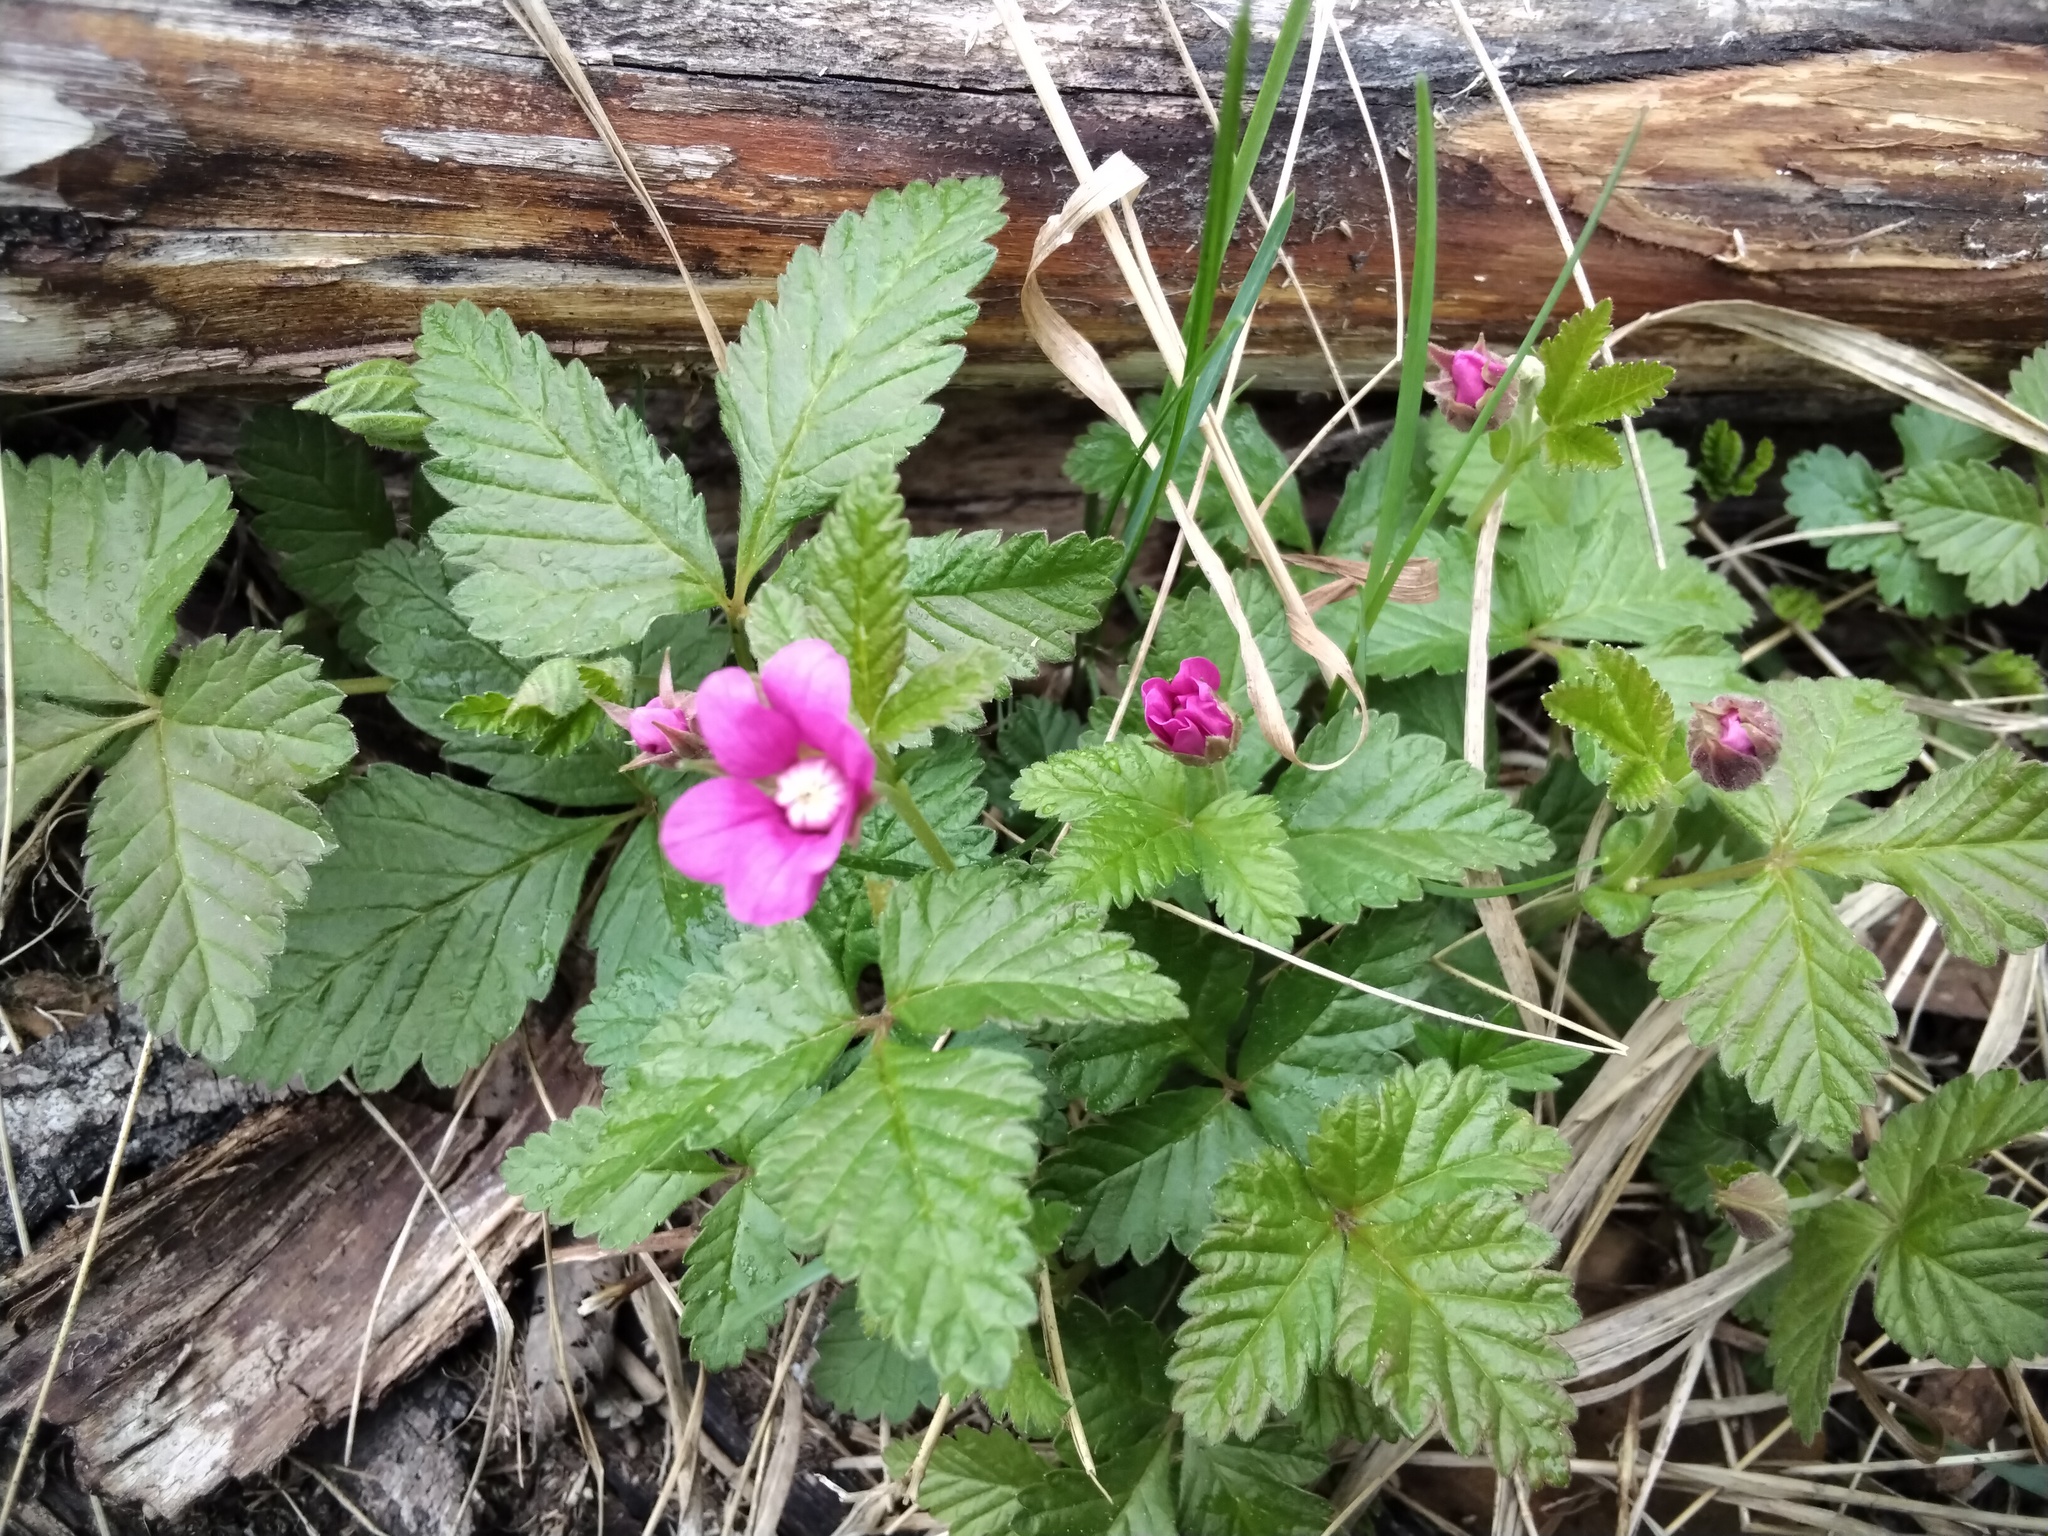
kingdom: Plantae
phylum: Tracheophyta
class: Magnoliopsida
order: Rosales
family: Rosaceae
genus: Rubus
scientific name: Rubus arcticus
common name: Arctic bramble
